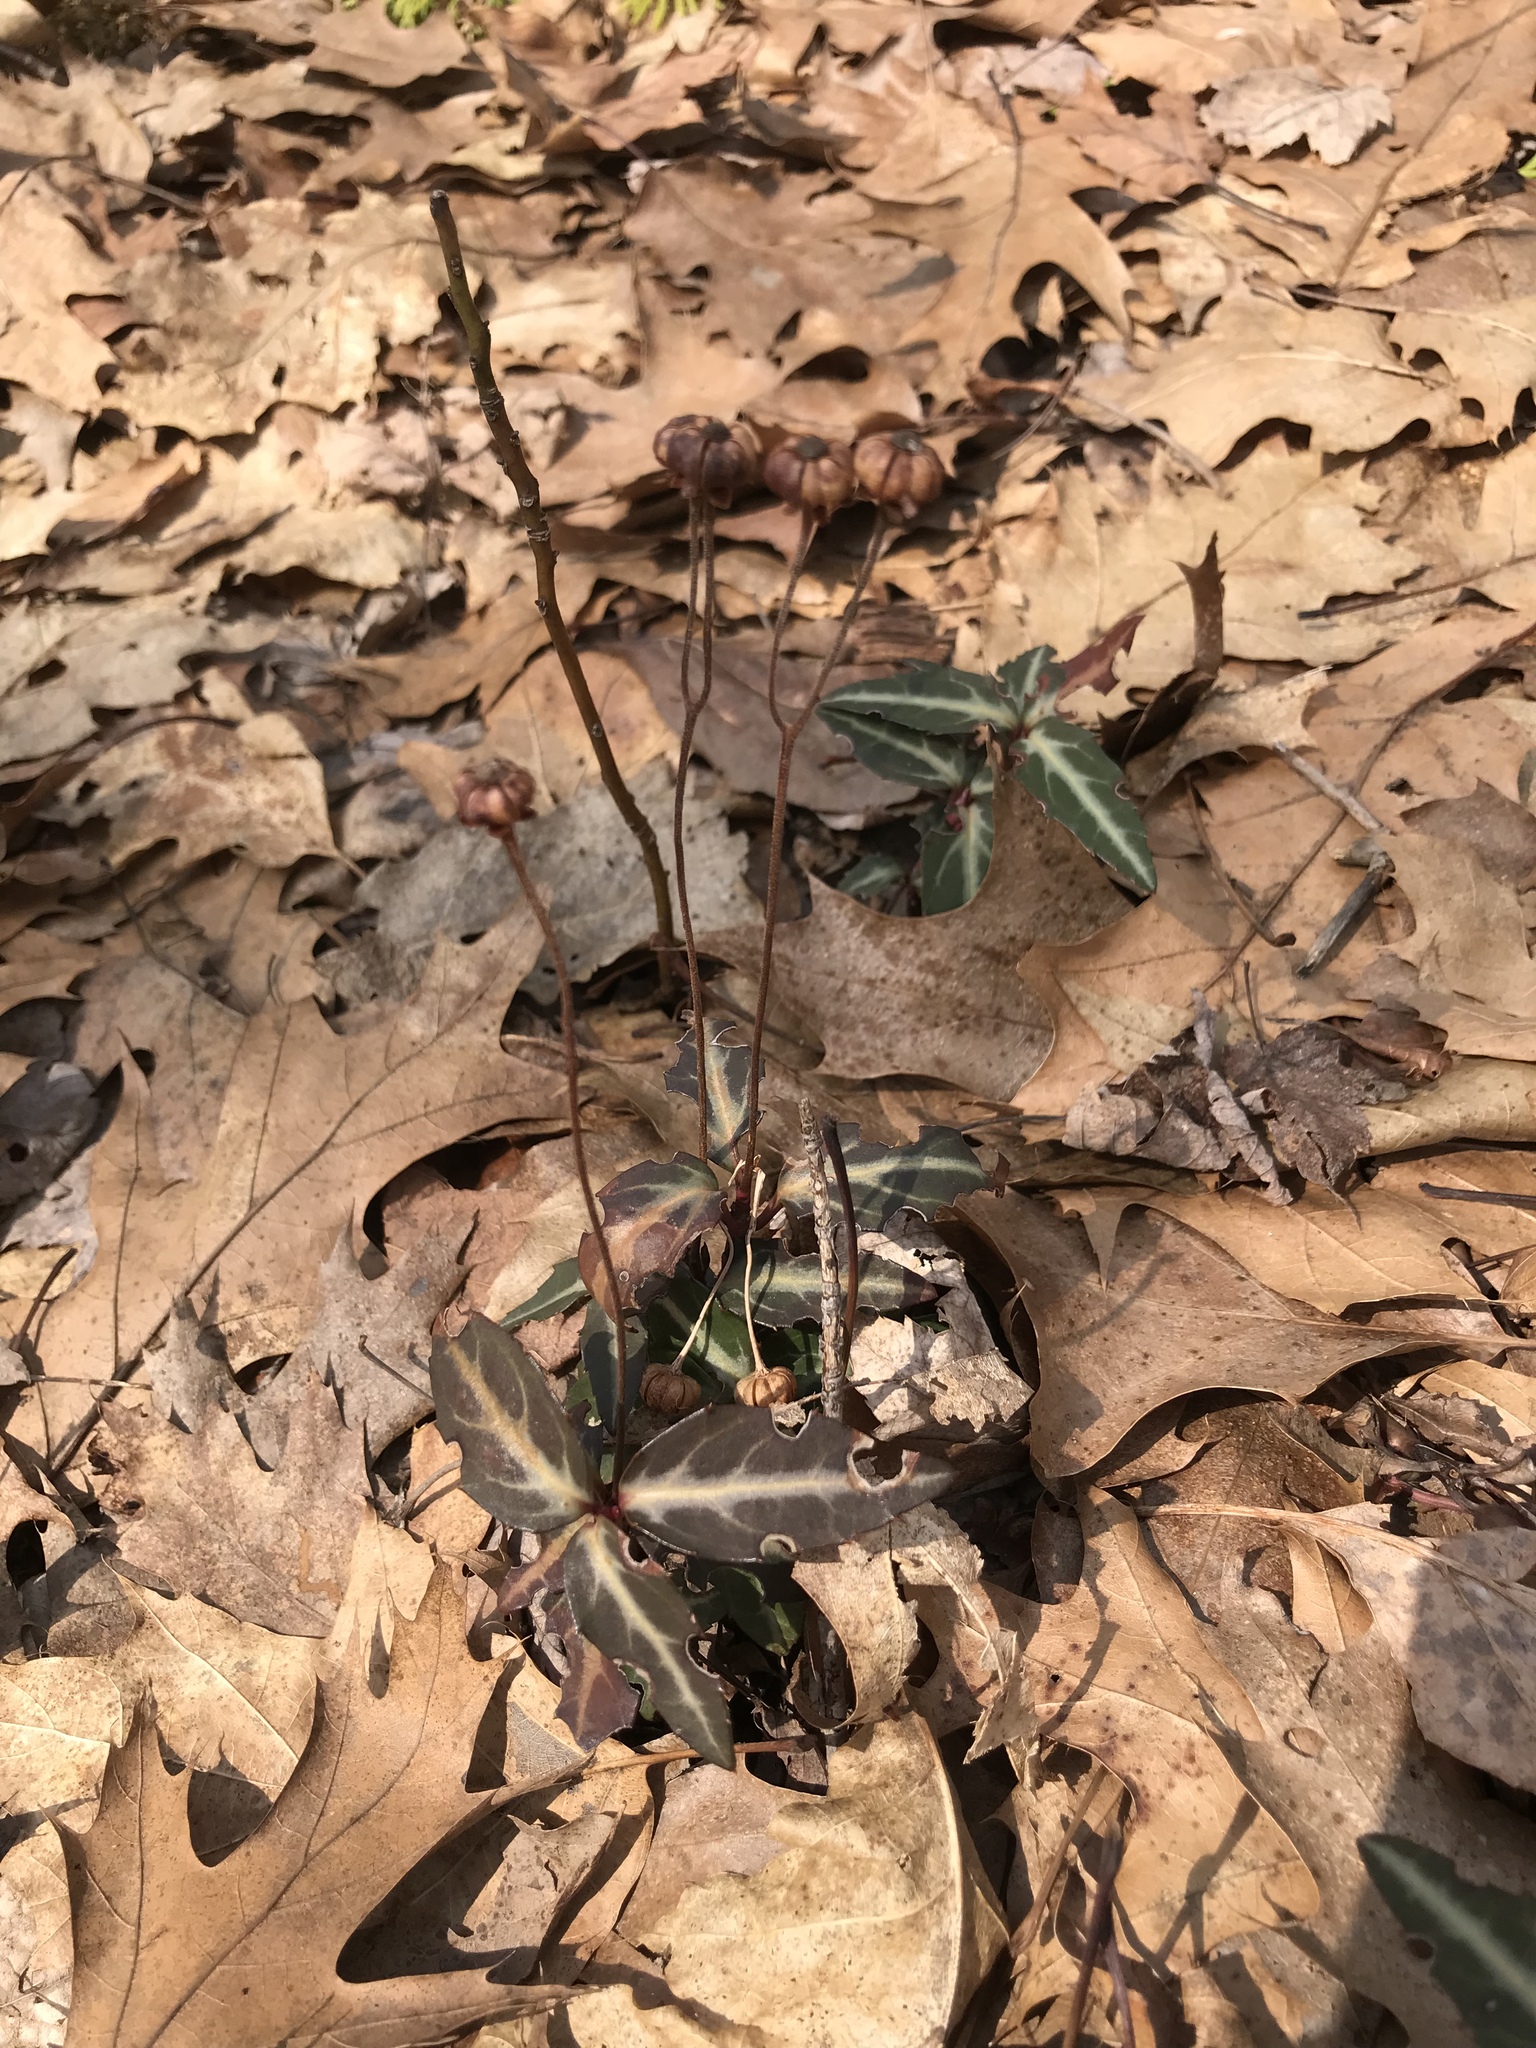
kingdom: Plantae
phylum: Tracheophyta
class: Magnoliopsida
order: Ericales
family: Ericaceae
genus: Chimaphila
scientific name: Chimaphila maculata
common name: Spotted pipsissewa
